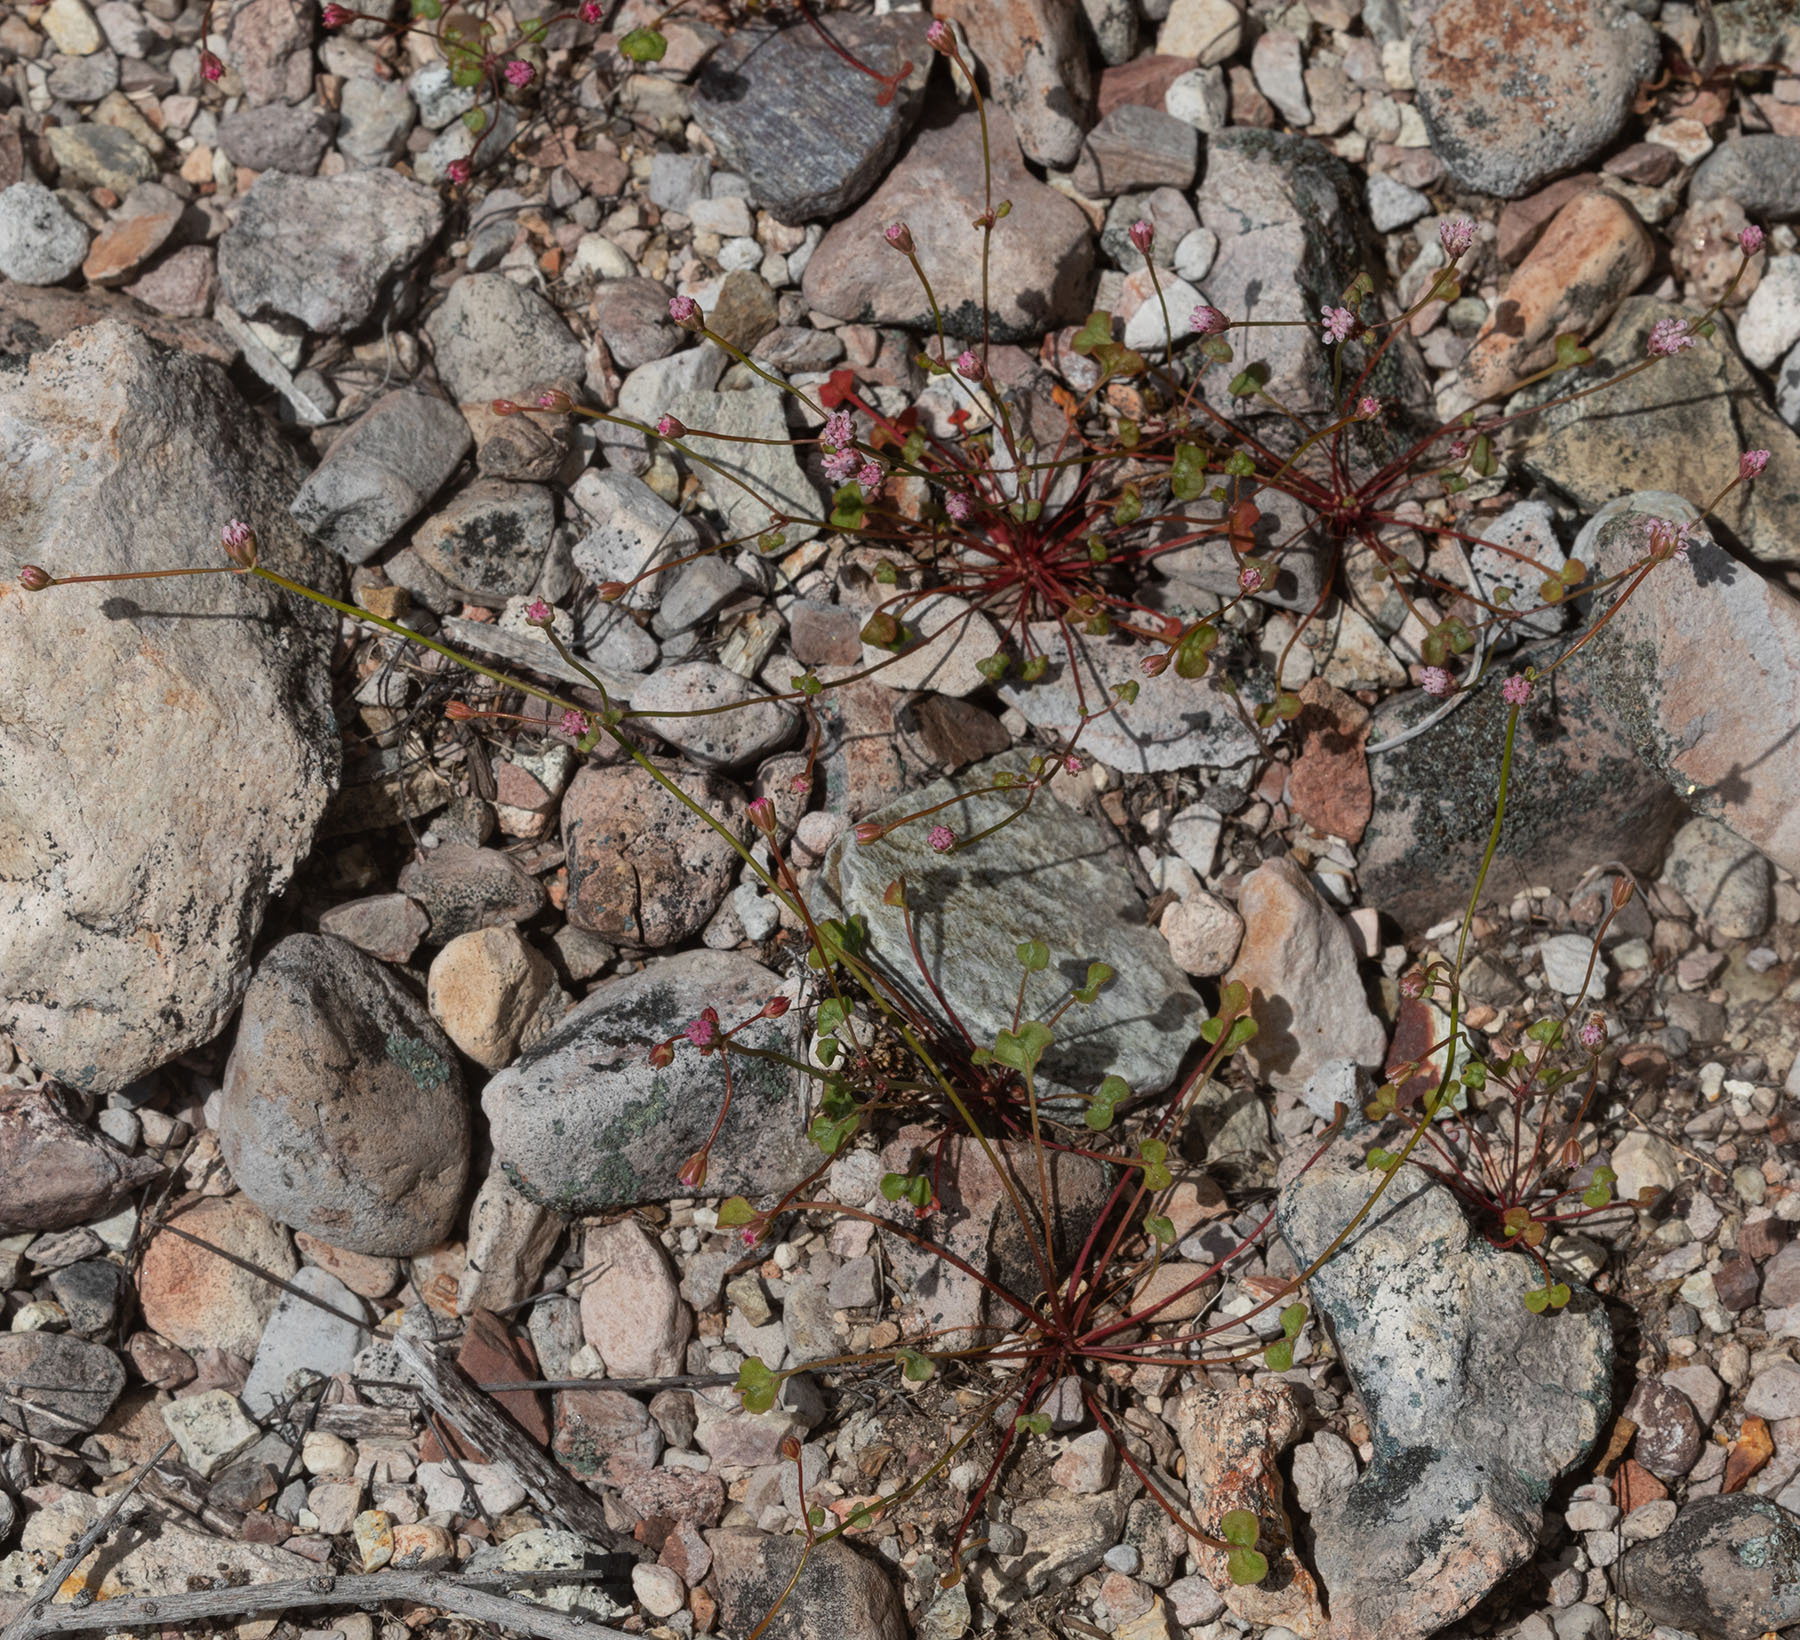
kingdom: Plantae
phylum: Tracheophyta
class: Magnoliopsida
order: Caryophyllales
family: Polygonaceae
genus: Eriogonum
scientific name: Eriogonum nortonii
